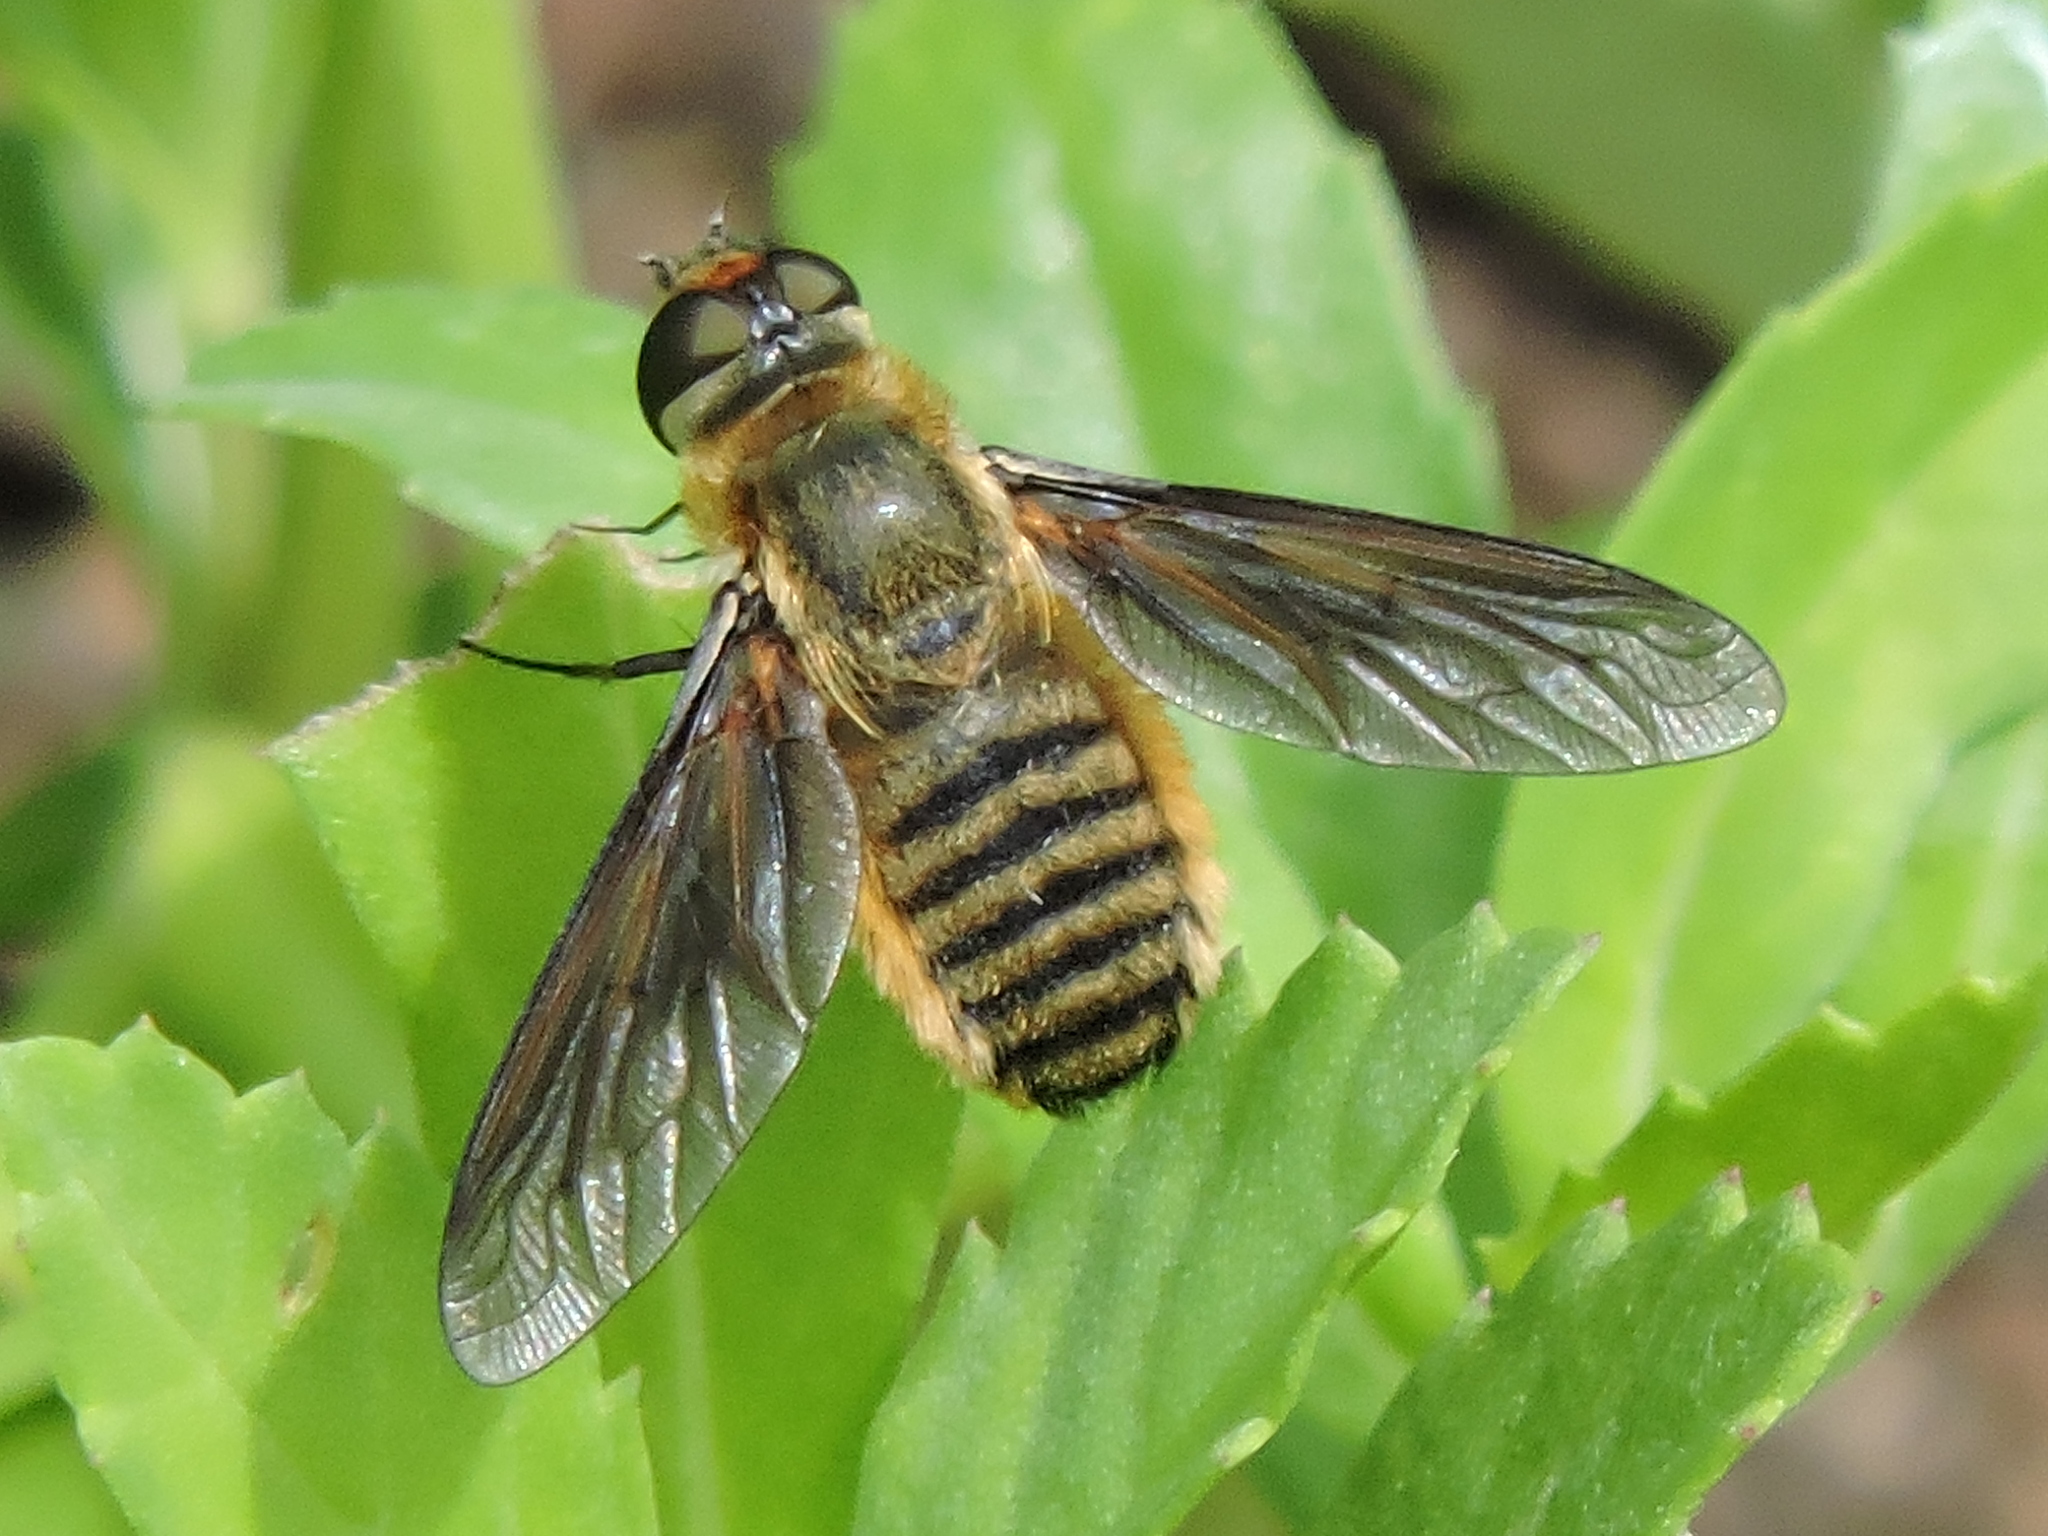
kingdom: Animalia
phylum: Arthropoda
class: Insecta
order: Diptera
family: Bombyliidae
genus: Poecilanthrax
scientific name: Poecilanthrax lucifer
